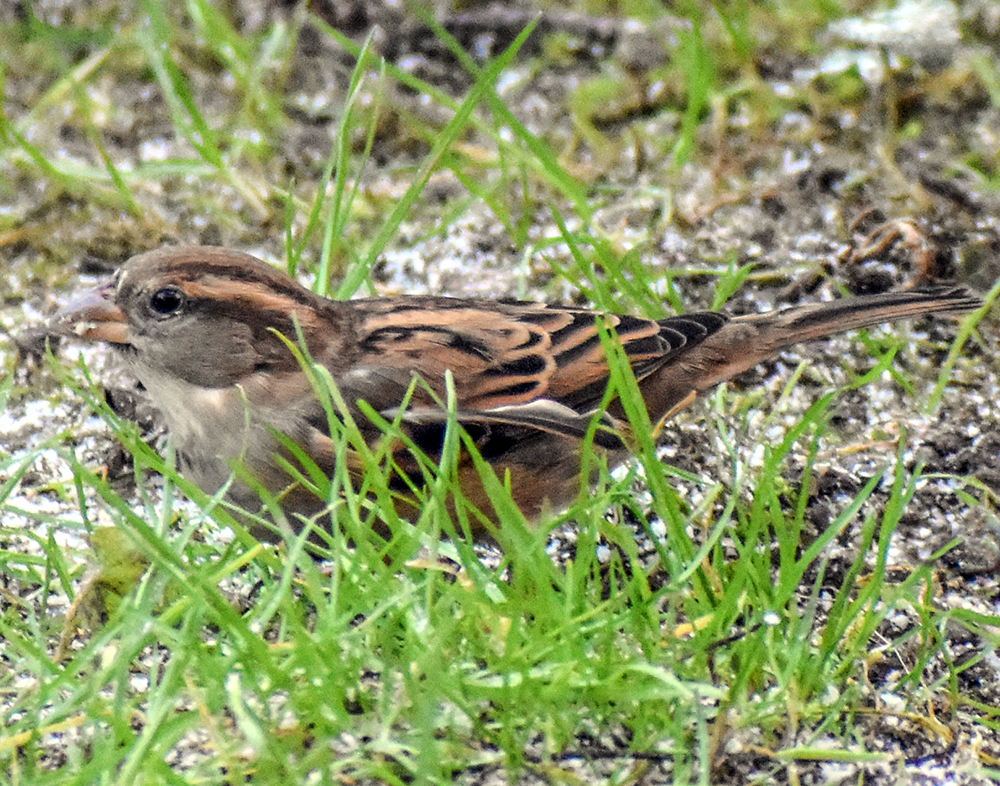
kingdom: Animalia
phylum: Chordata
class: Aves
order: Passeriformes
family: Passeridae
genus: Passer
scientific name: Passer italiae
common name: Italian sparrow
